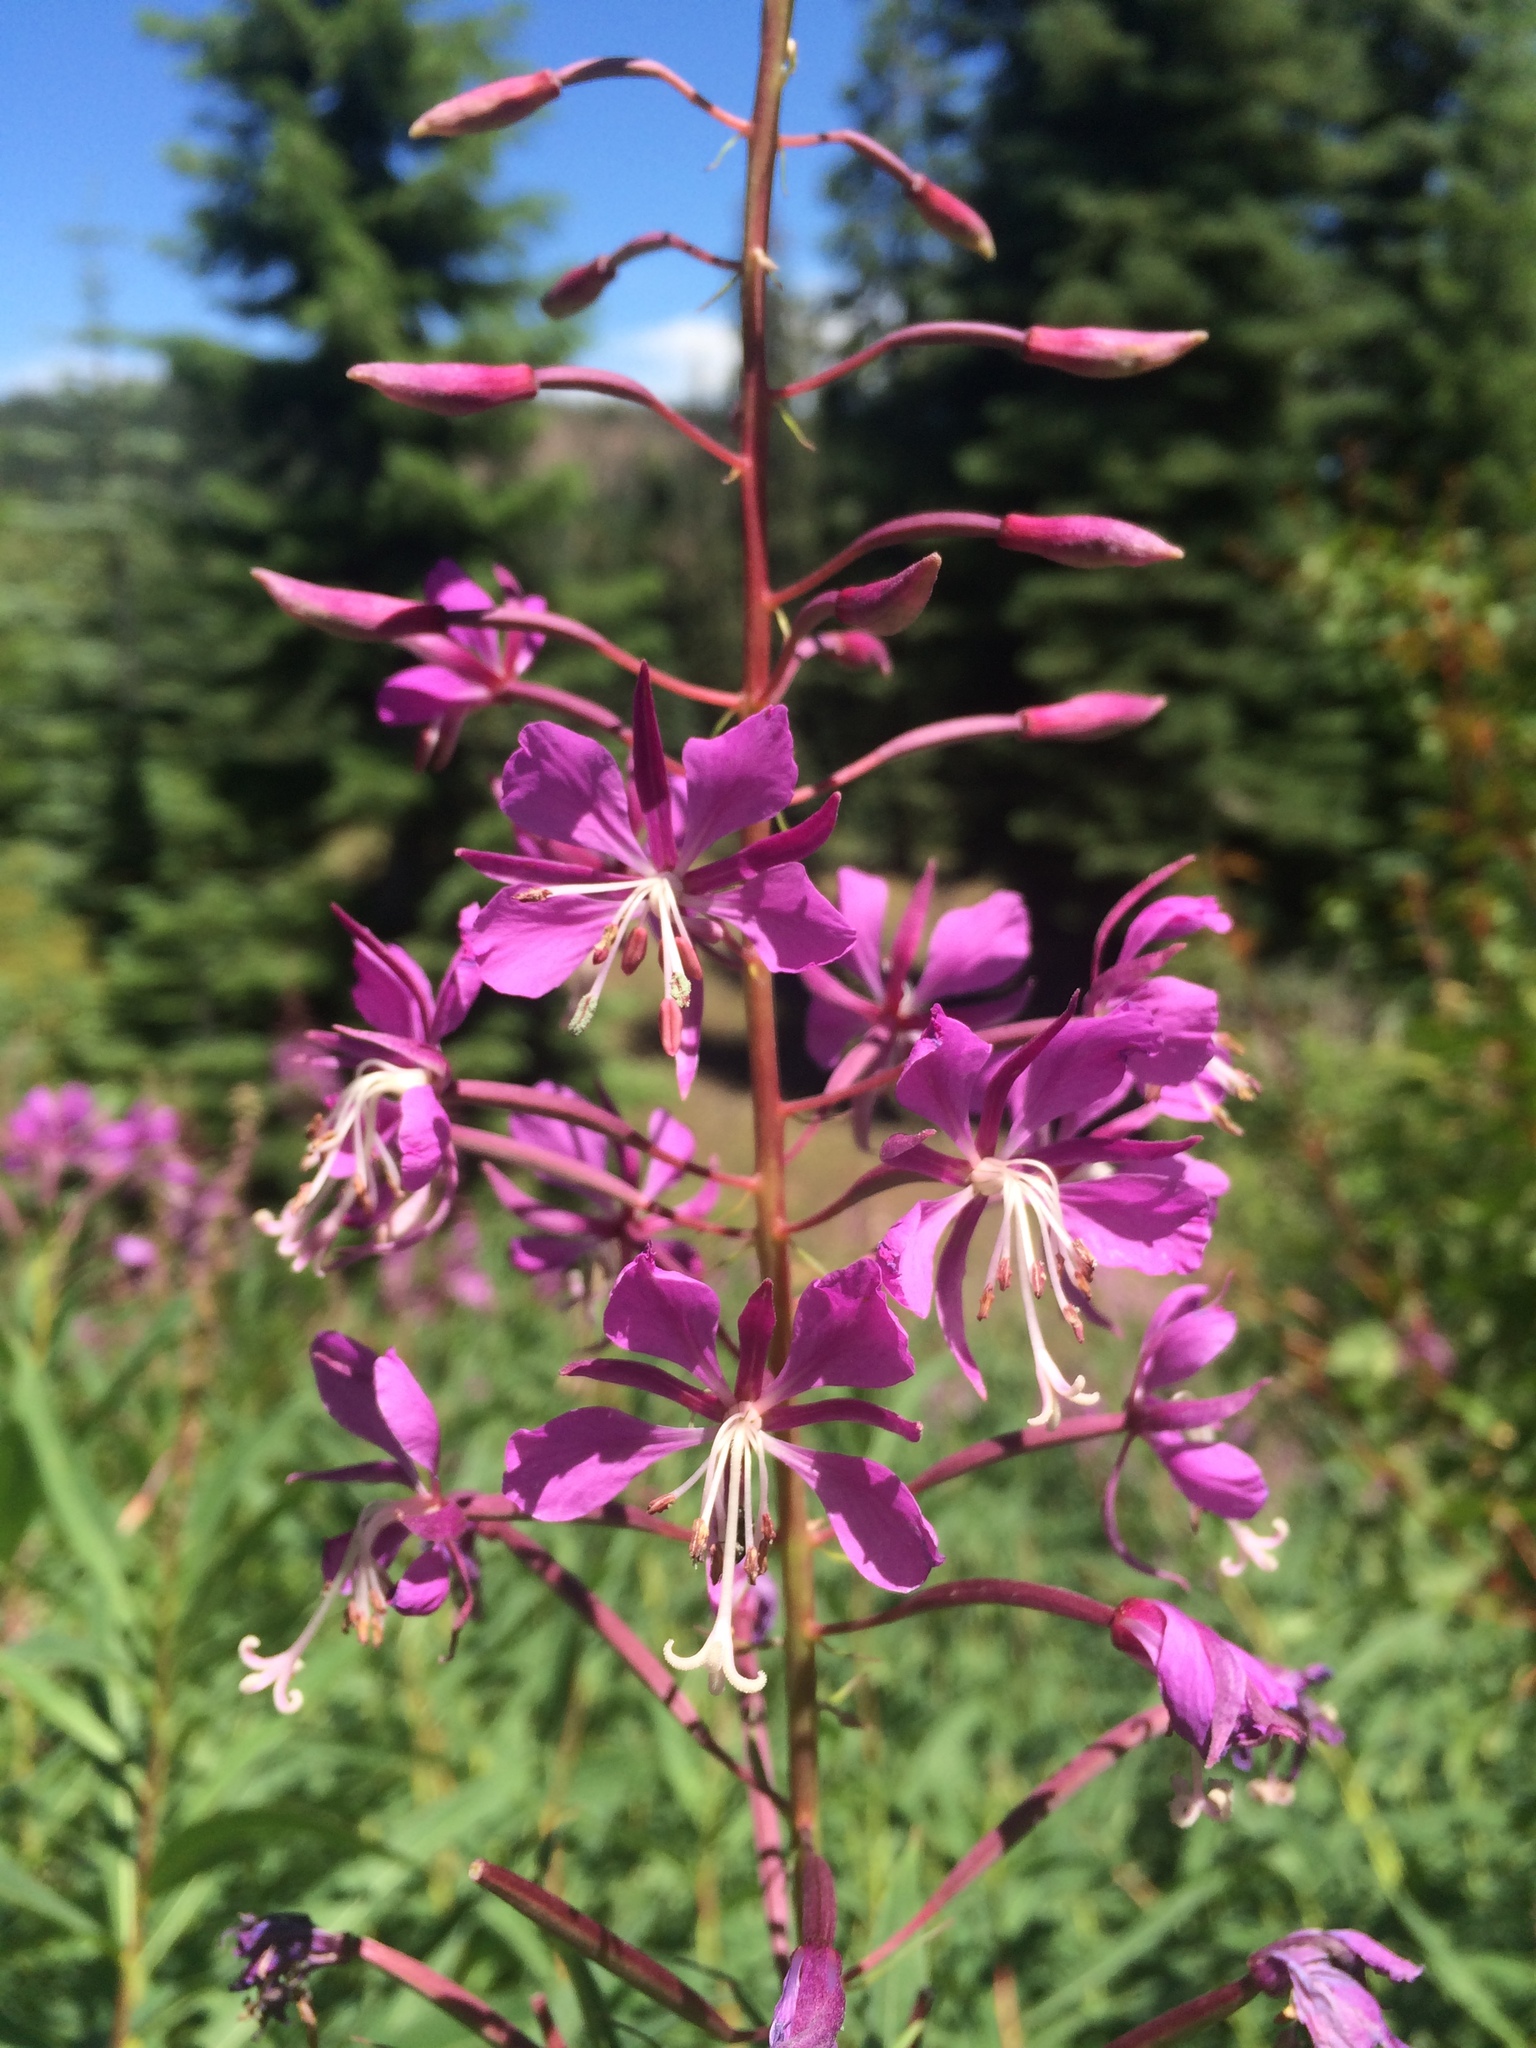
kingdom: Plantae
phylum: Tracheophyta
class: Magnoliopsida
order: Myrtales
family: Onagraceae
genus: Chamaenerion
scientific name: Chamaenerion angustifolium
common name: Fireweed
